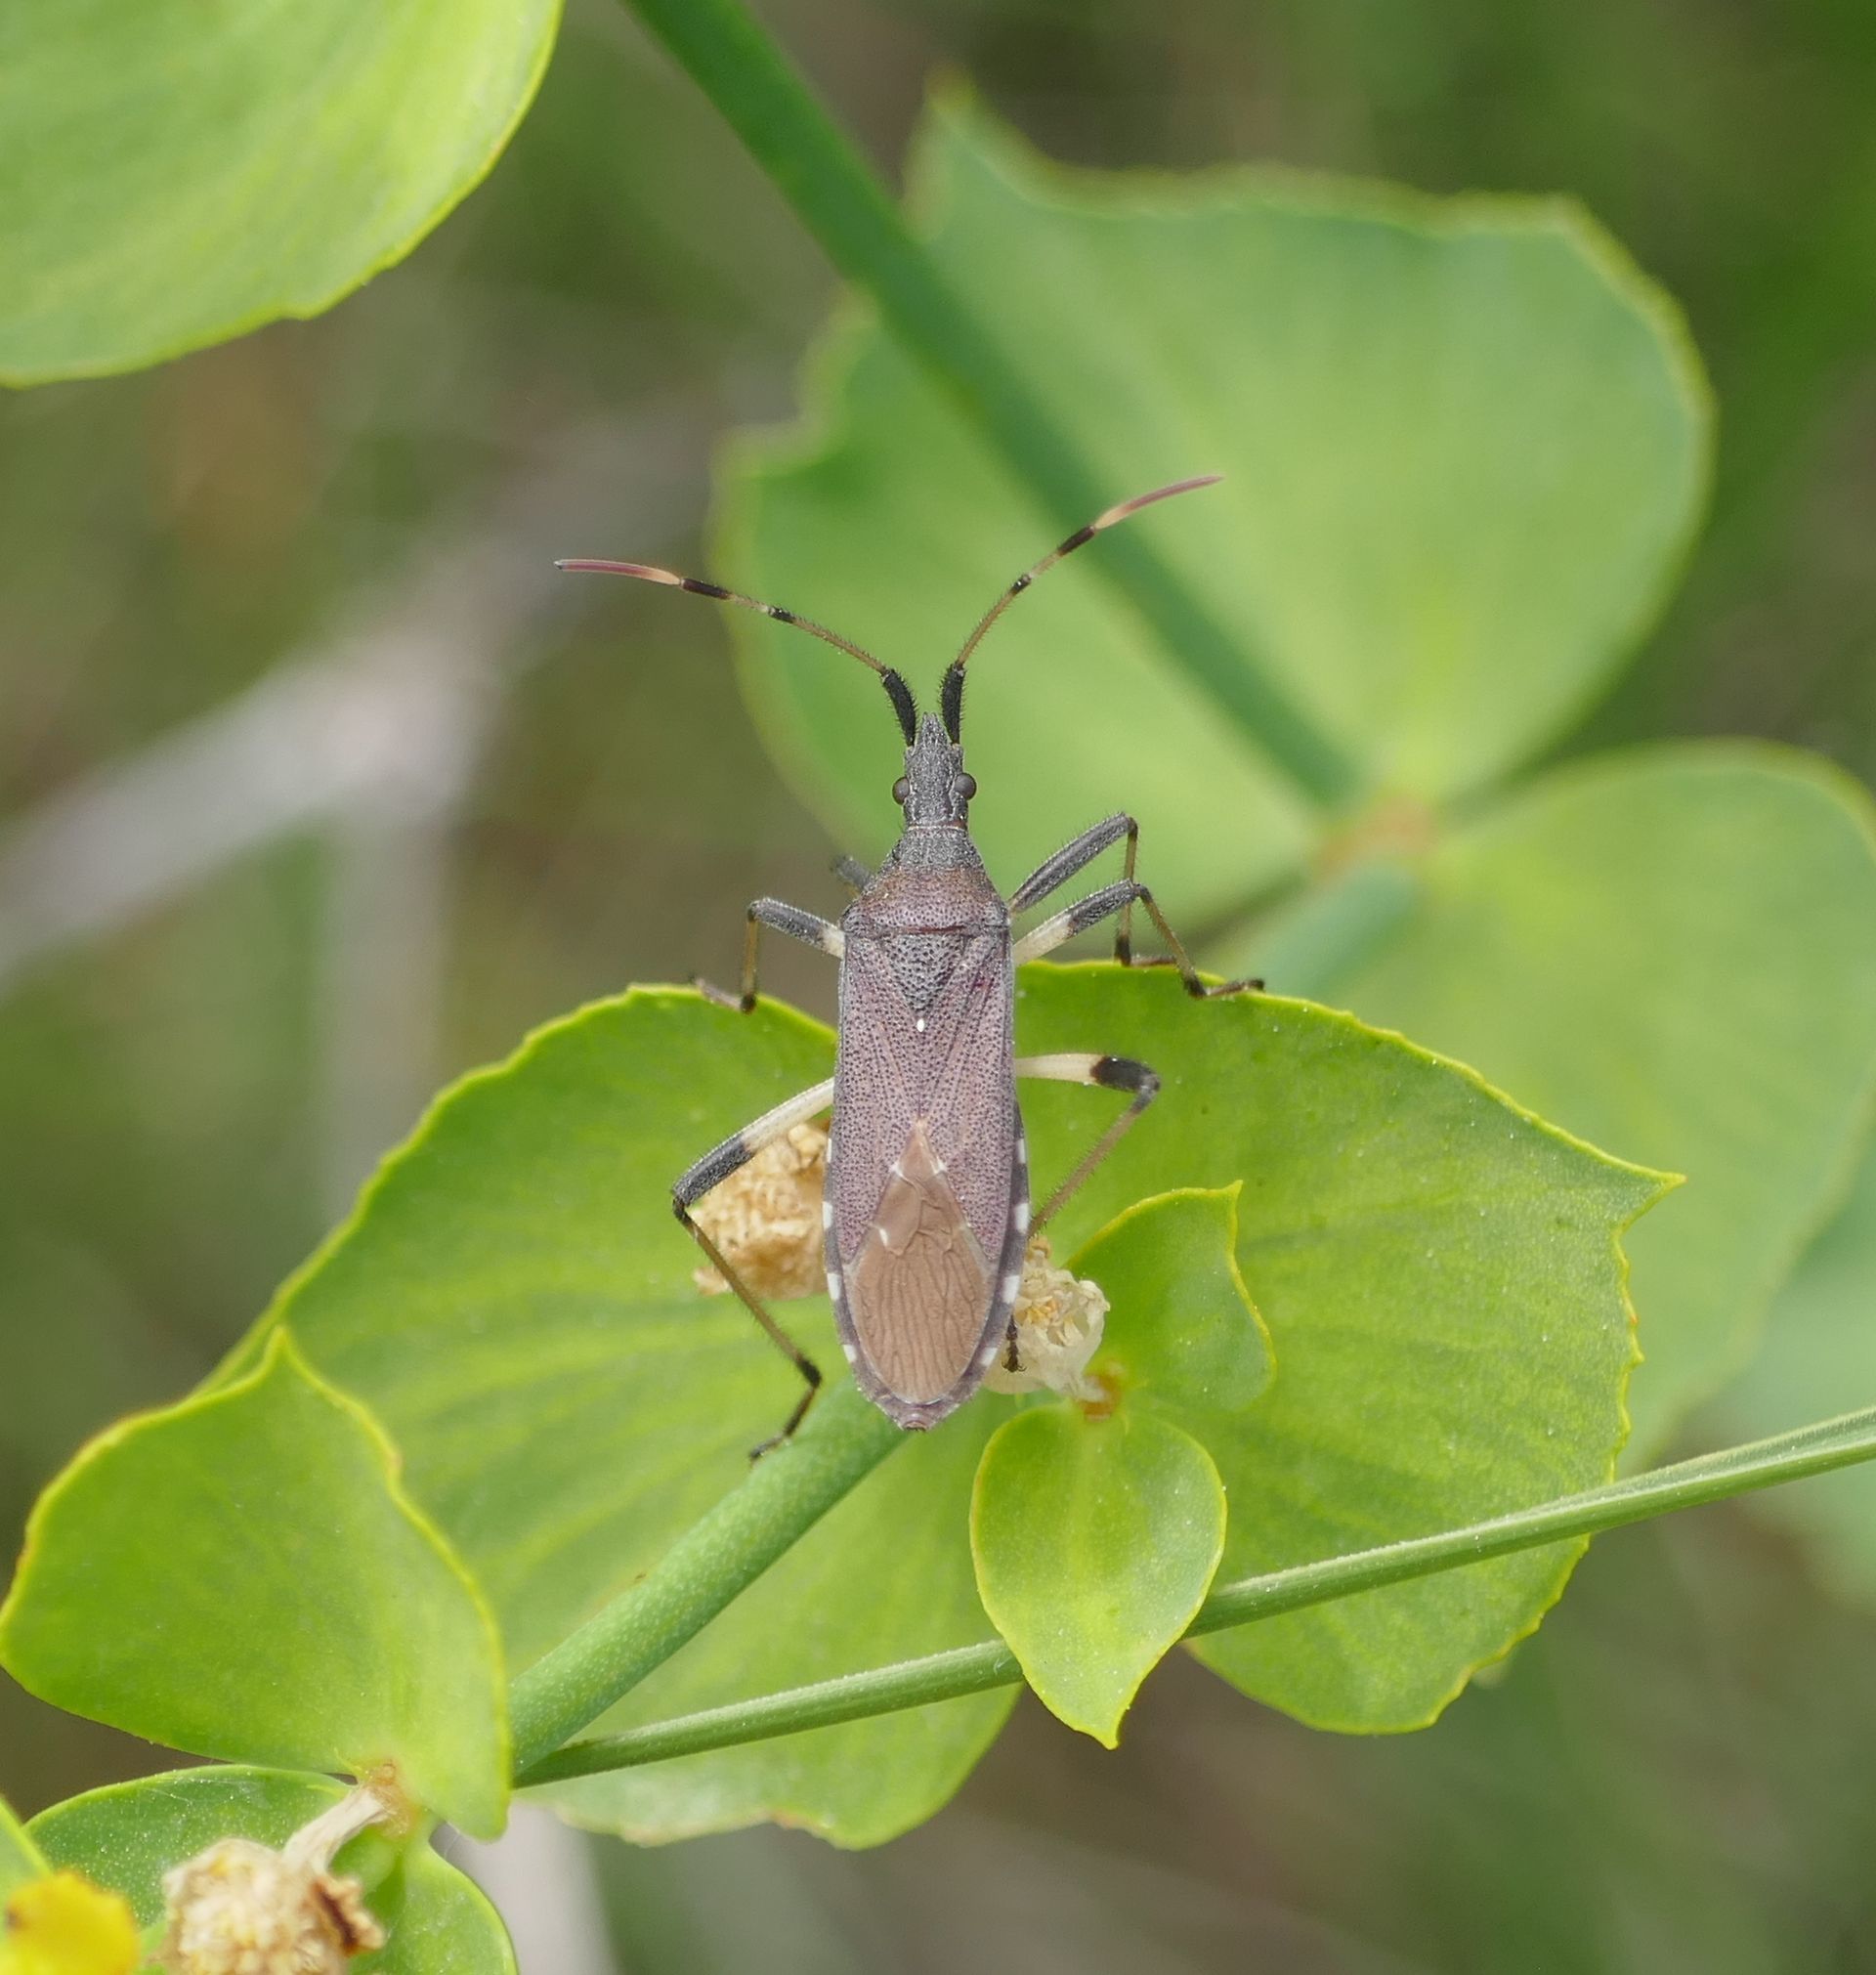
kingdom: Animalia
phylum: Arthropoda
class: Insecta
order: Hemiptera
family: Stenocephalidae
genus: Dicranocephalus
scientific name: Dicranocephalus albipes
